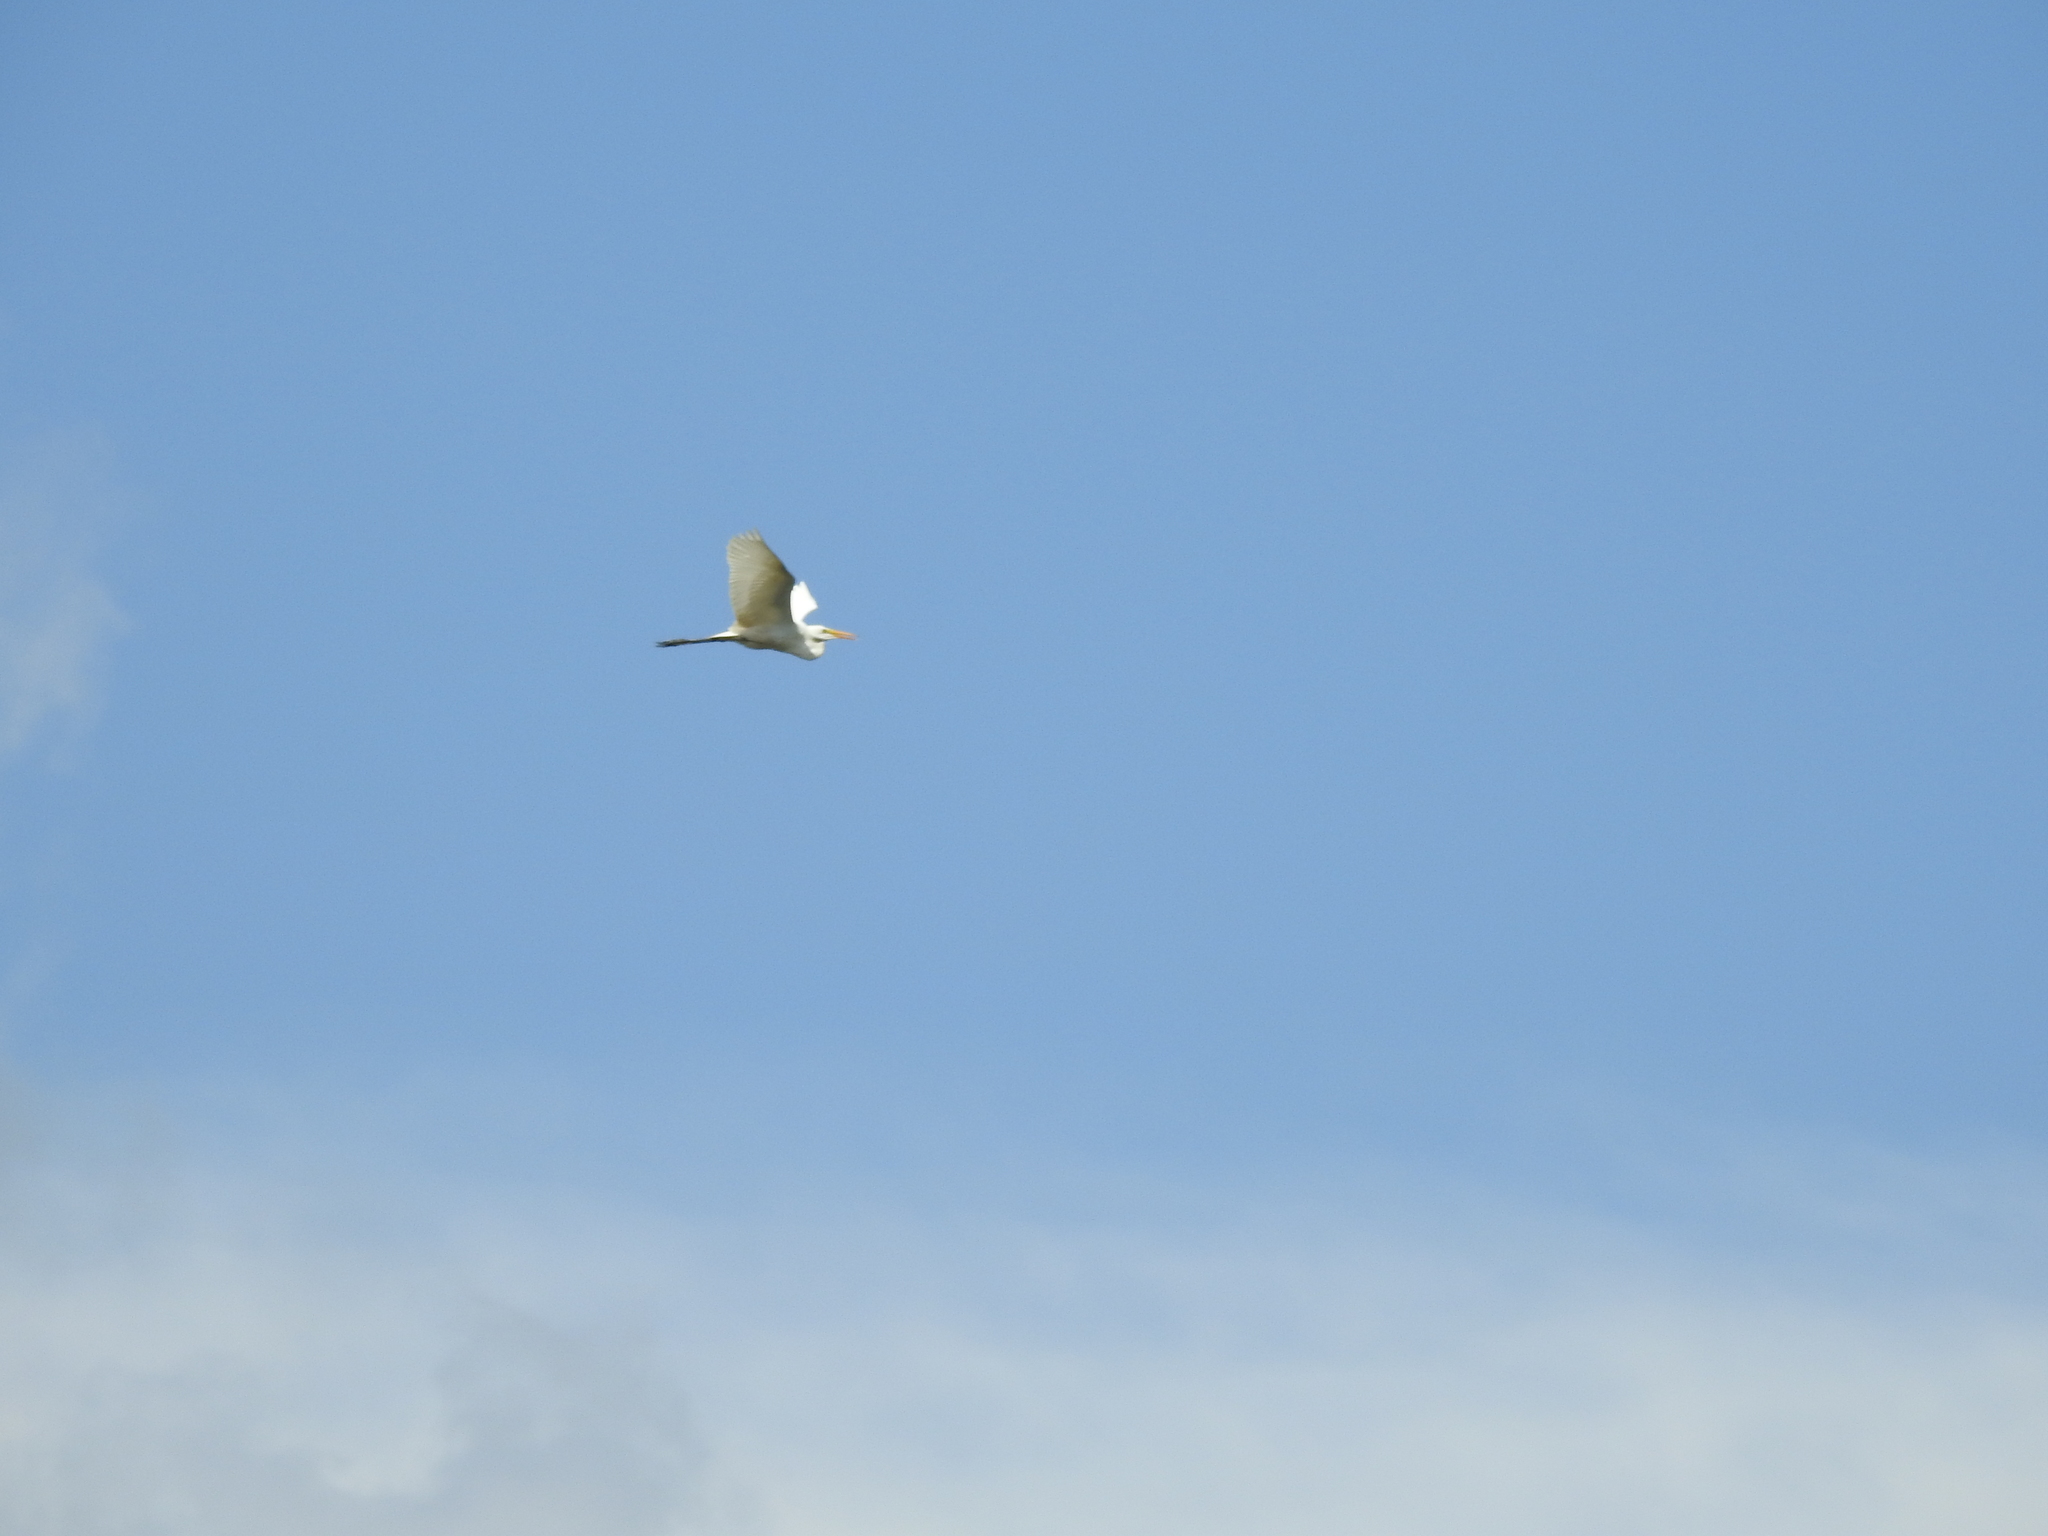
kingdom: Animalia
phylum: Chordata
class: Aves
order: Pelecaniformes
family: Ardeidae
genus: Ardea
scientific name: Ardea alba
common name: Great egret
